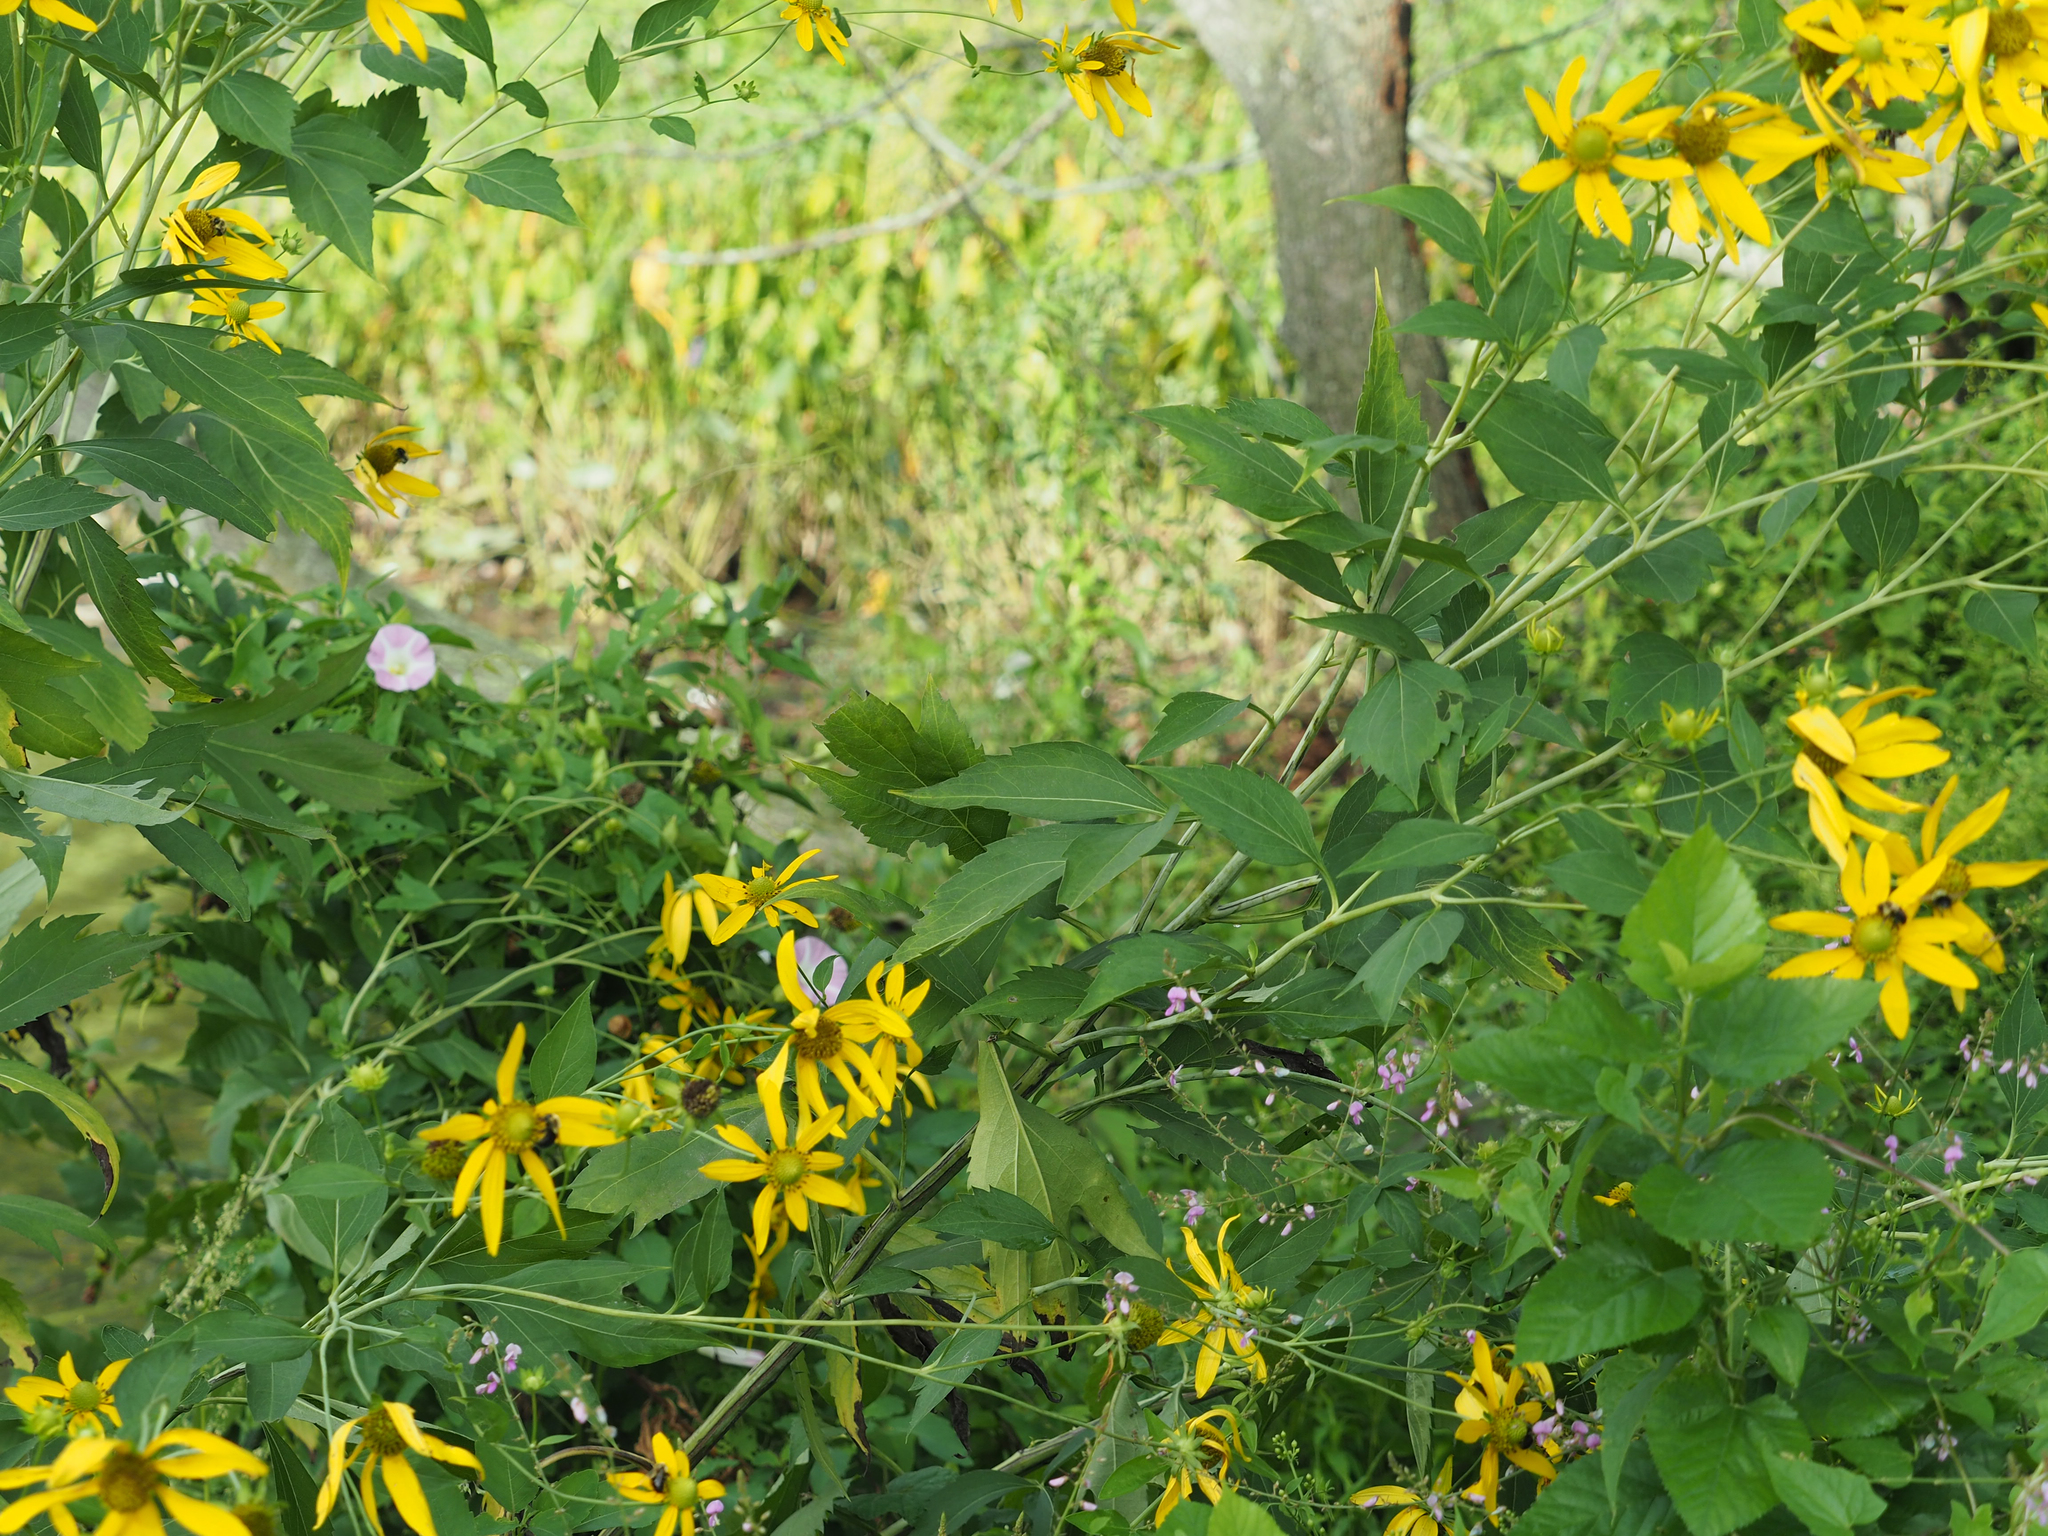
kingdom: Plantae
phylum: Tracheophyta
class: Magnoliopsida
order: Asterales
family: Asteraceae
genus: Rudbeckia
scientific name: Rudbeckia laciniata
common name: Coneflower
